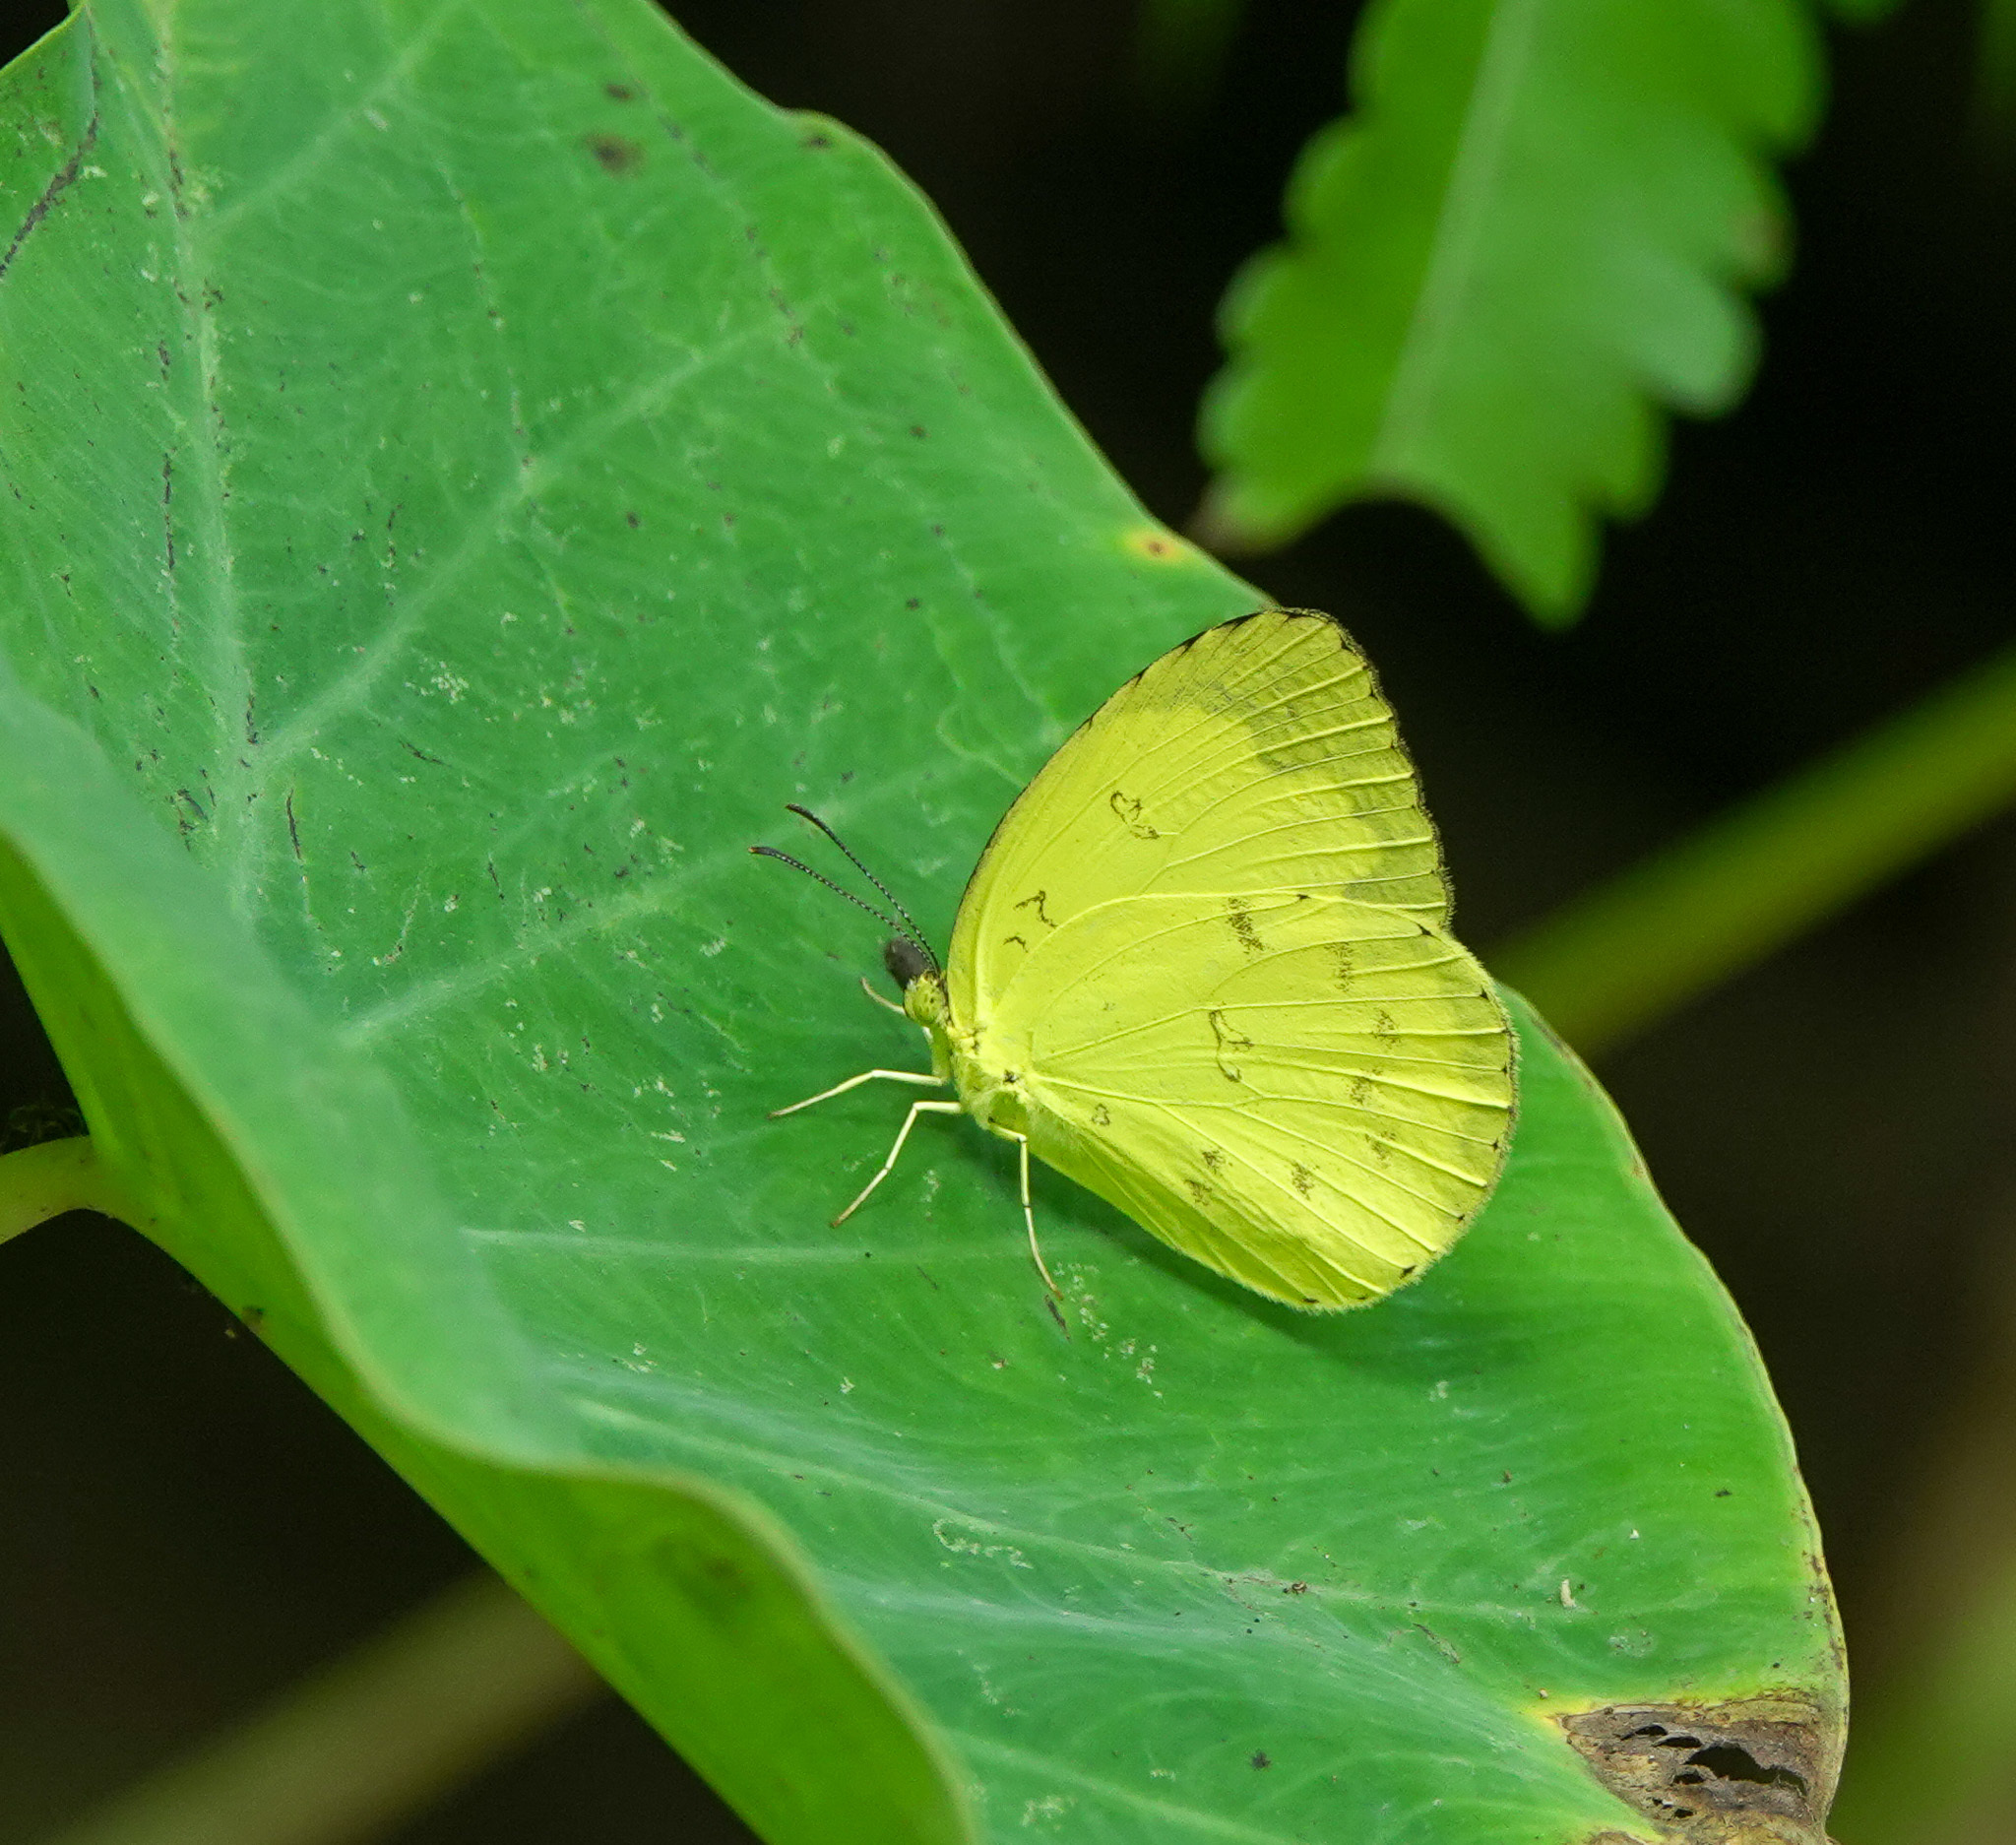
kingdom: Animalia
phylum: Arthropoda
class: Insecta
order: Lepidoptera
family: Pieridae
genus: Eurema
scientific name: Eurema blanda
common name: Three-spot grass yellow
